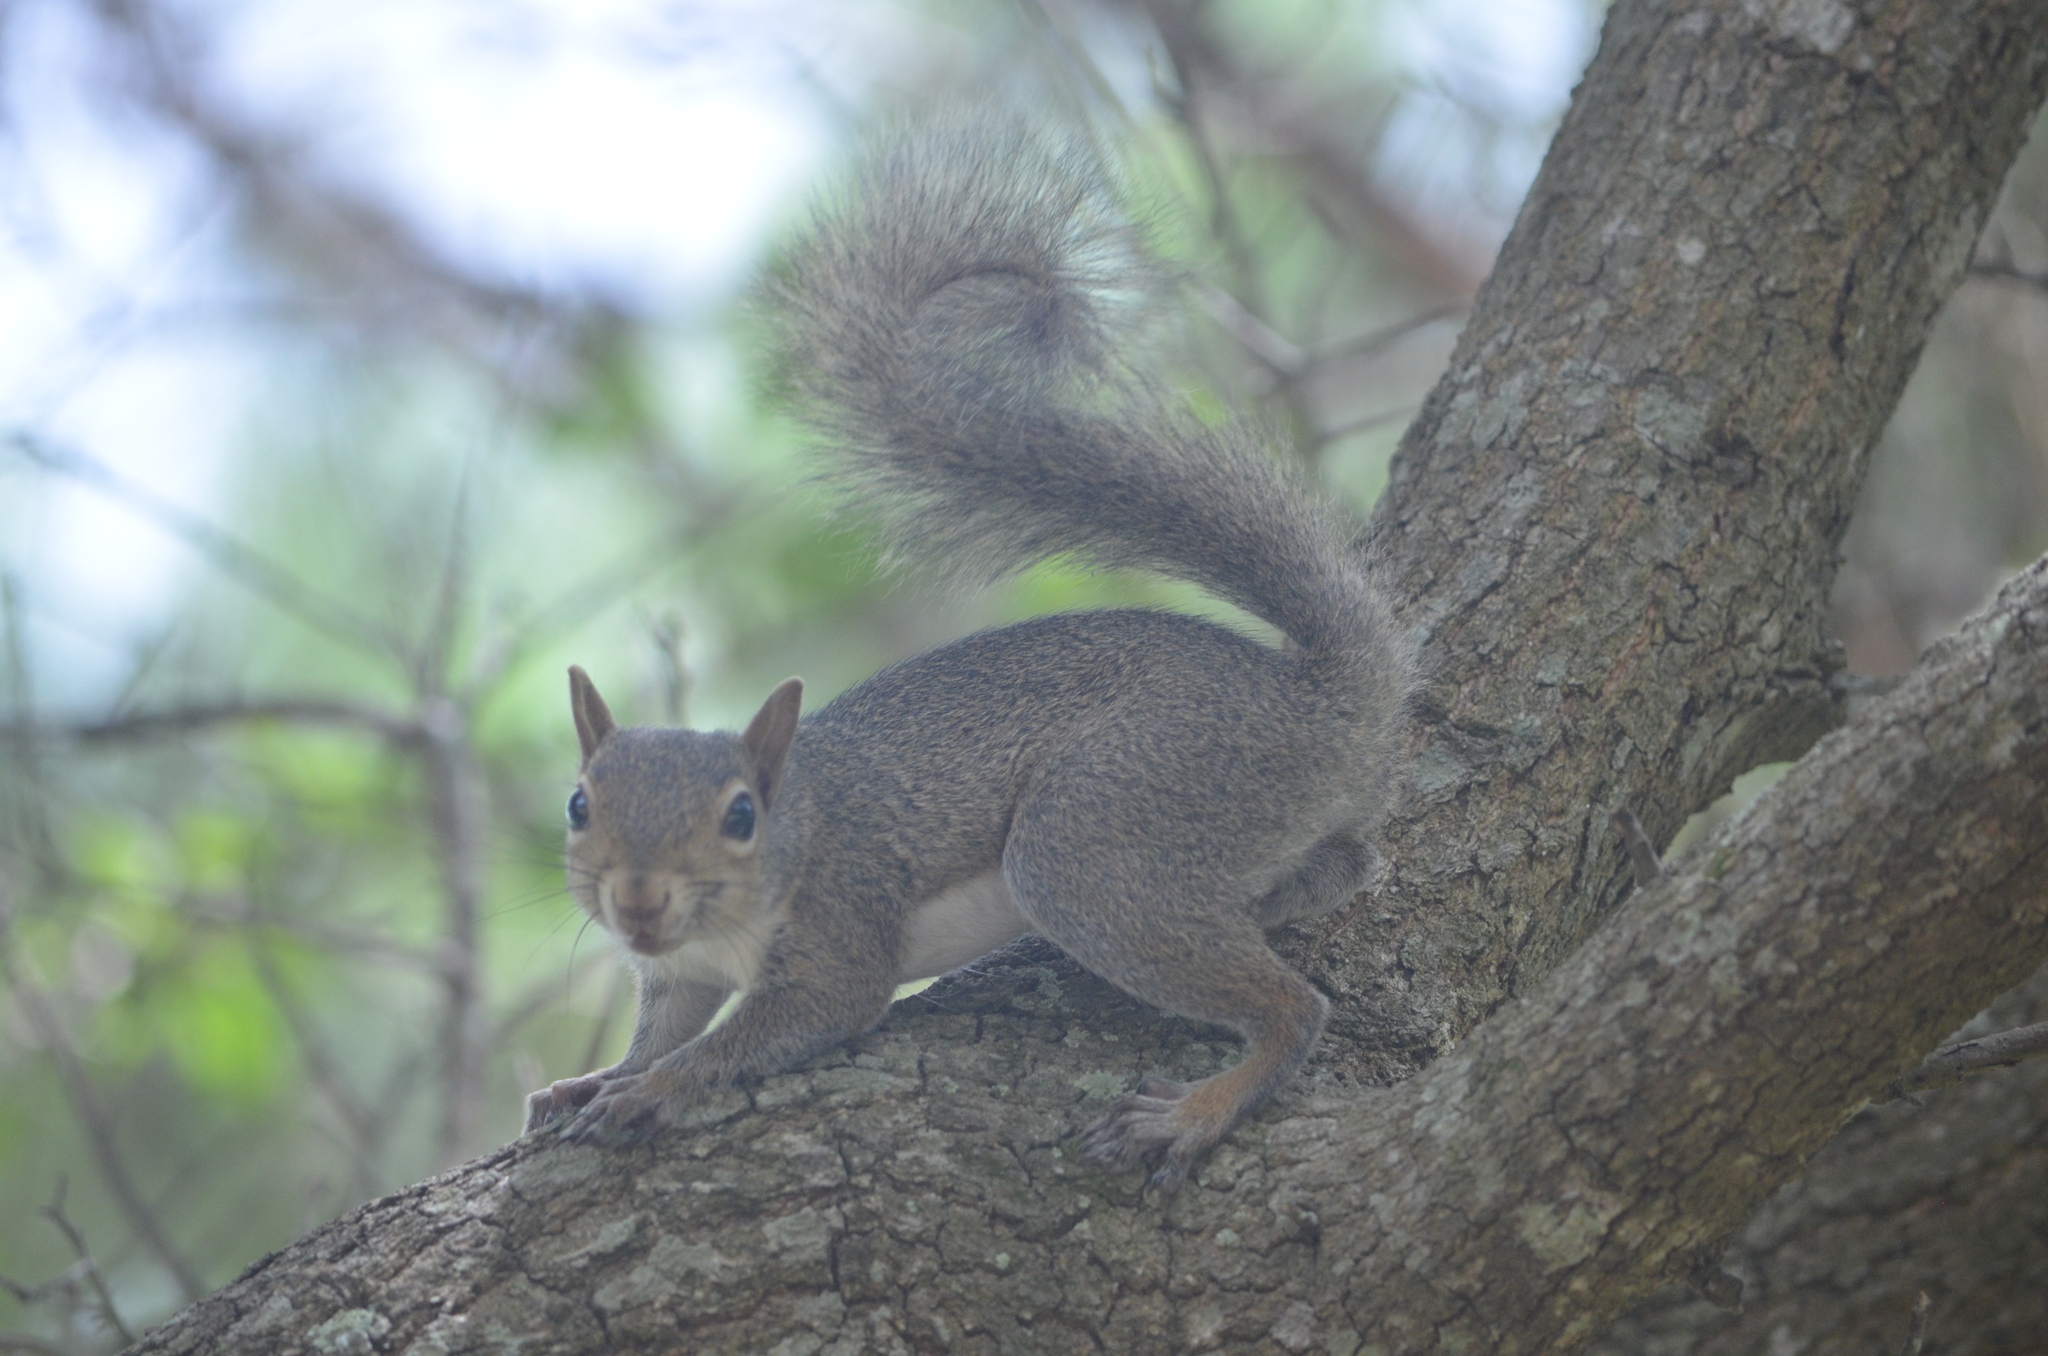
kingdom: Animalia
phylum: Chordata
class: Mammalia
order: Rodentia
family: Sciuridae
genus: Sciurus
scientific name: Sciurus carolinensis
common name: Eastern gray squirrel
